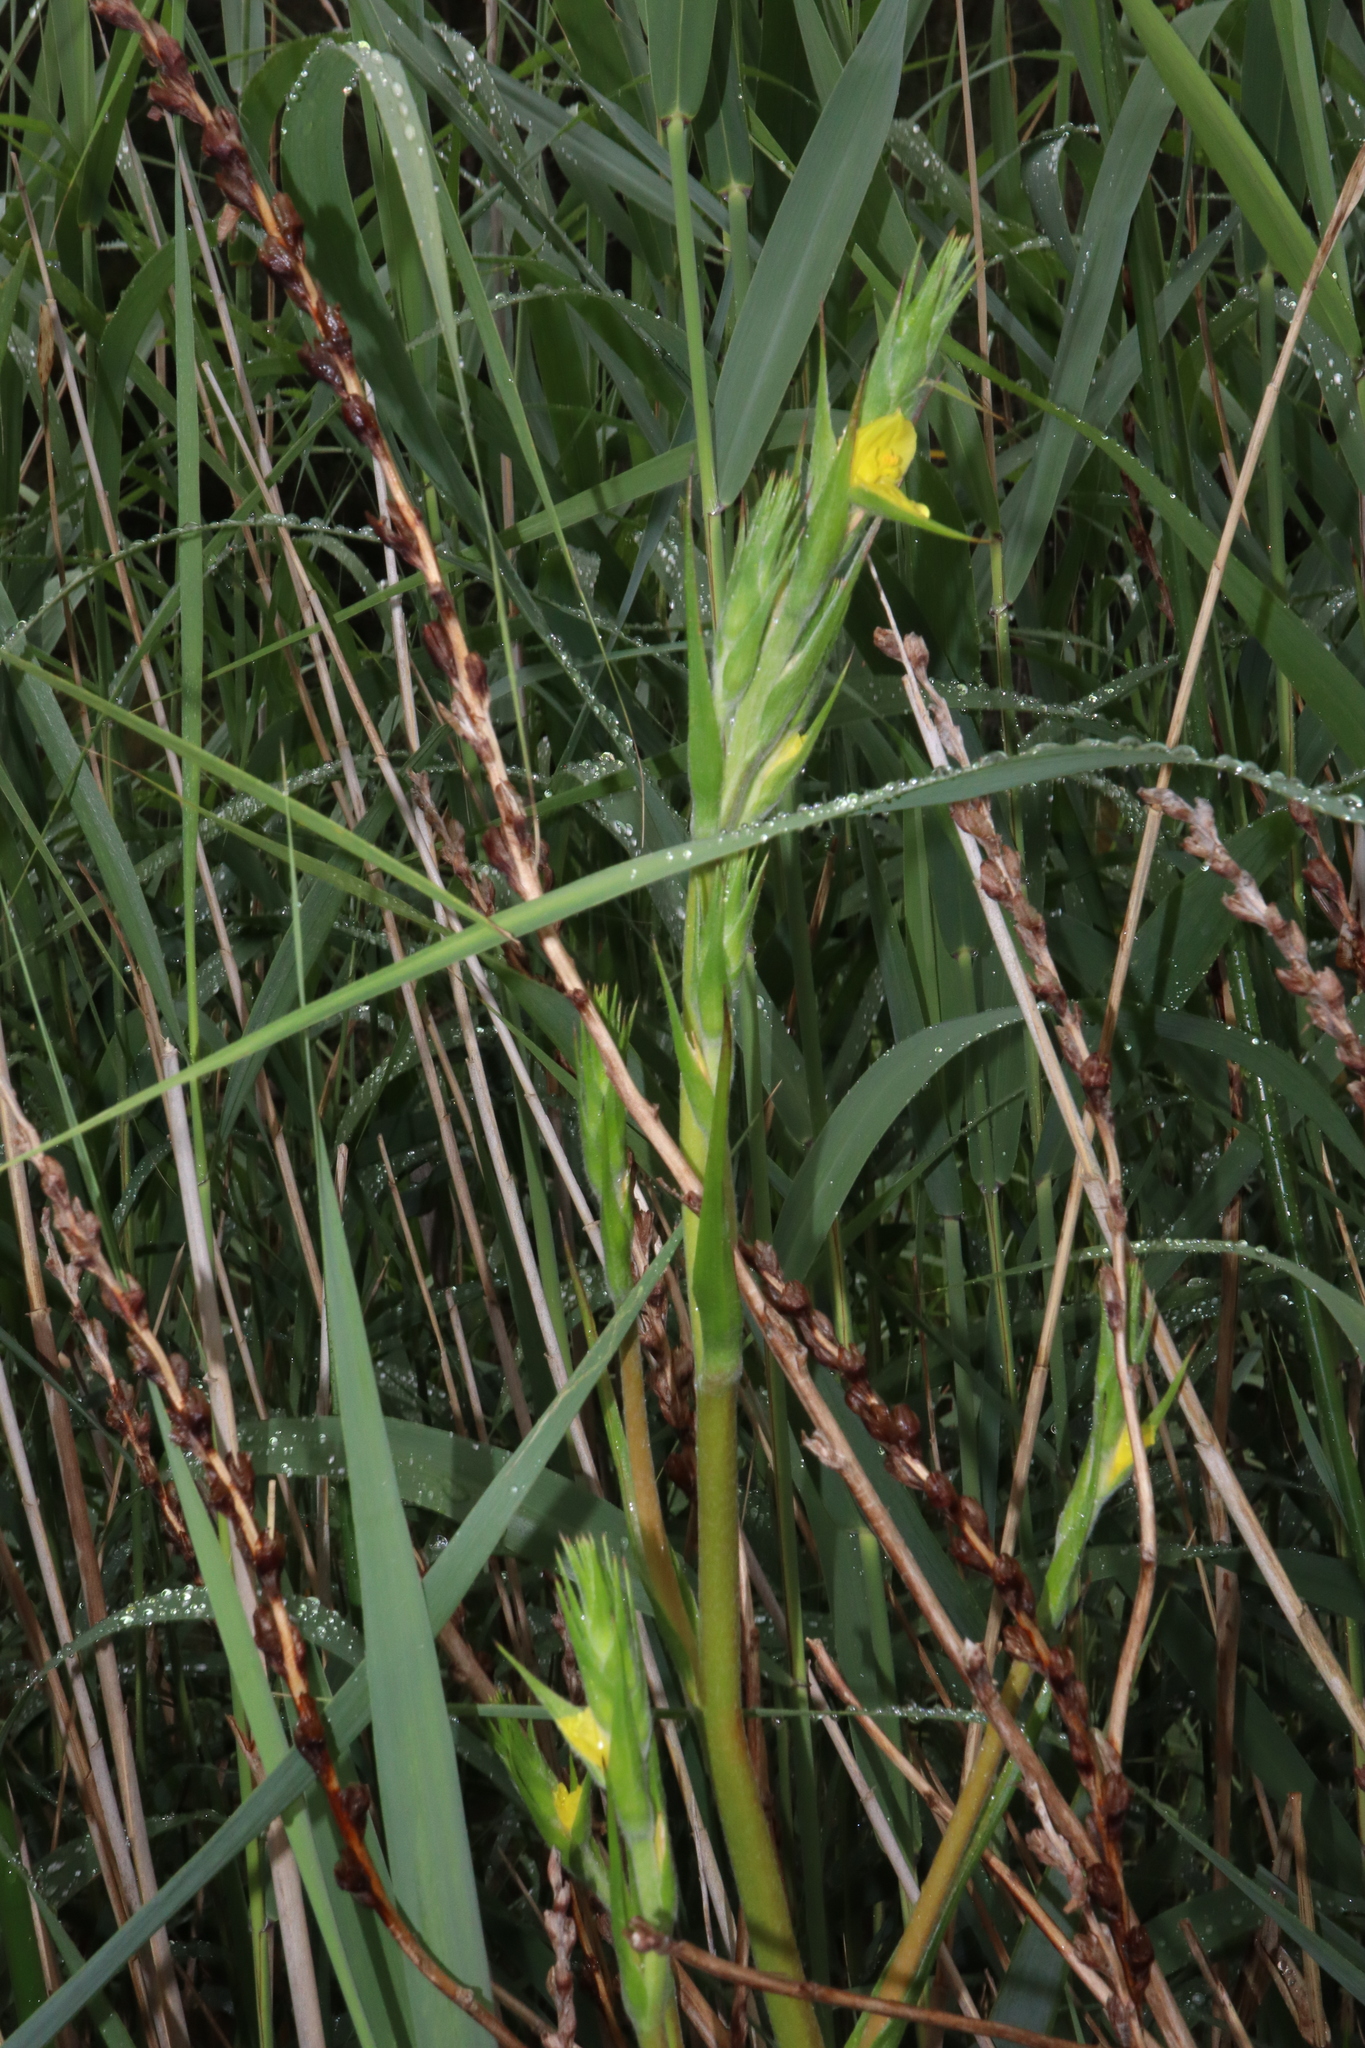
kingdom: Plantae
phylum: Tracheophyta
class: Liliopsida
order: Commelinales
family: Philydraceae
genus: Philydrum
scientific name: Philydrum lanuginosum
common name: Woolly frog's mouth
